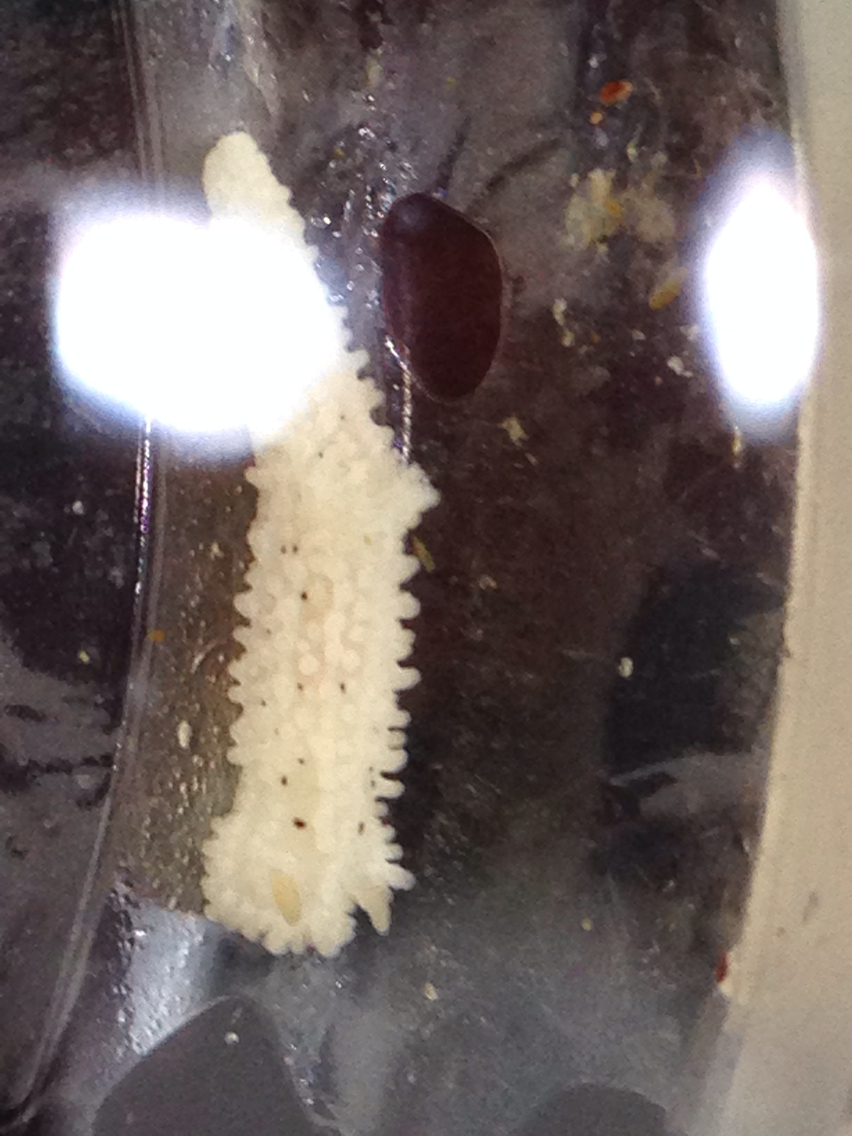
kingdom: Animalia
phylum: Mollusca
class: Gastropoda
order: Nudibranchia
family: Aegiridae
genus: Aegires
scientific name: Aegires albopunctatus
